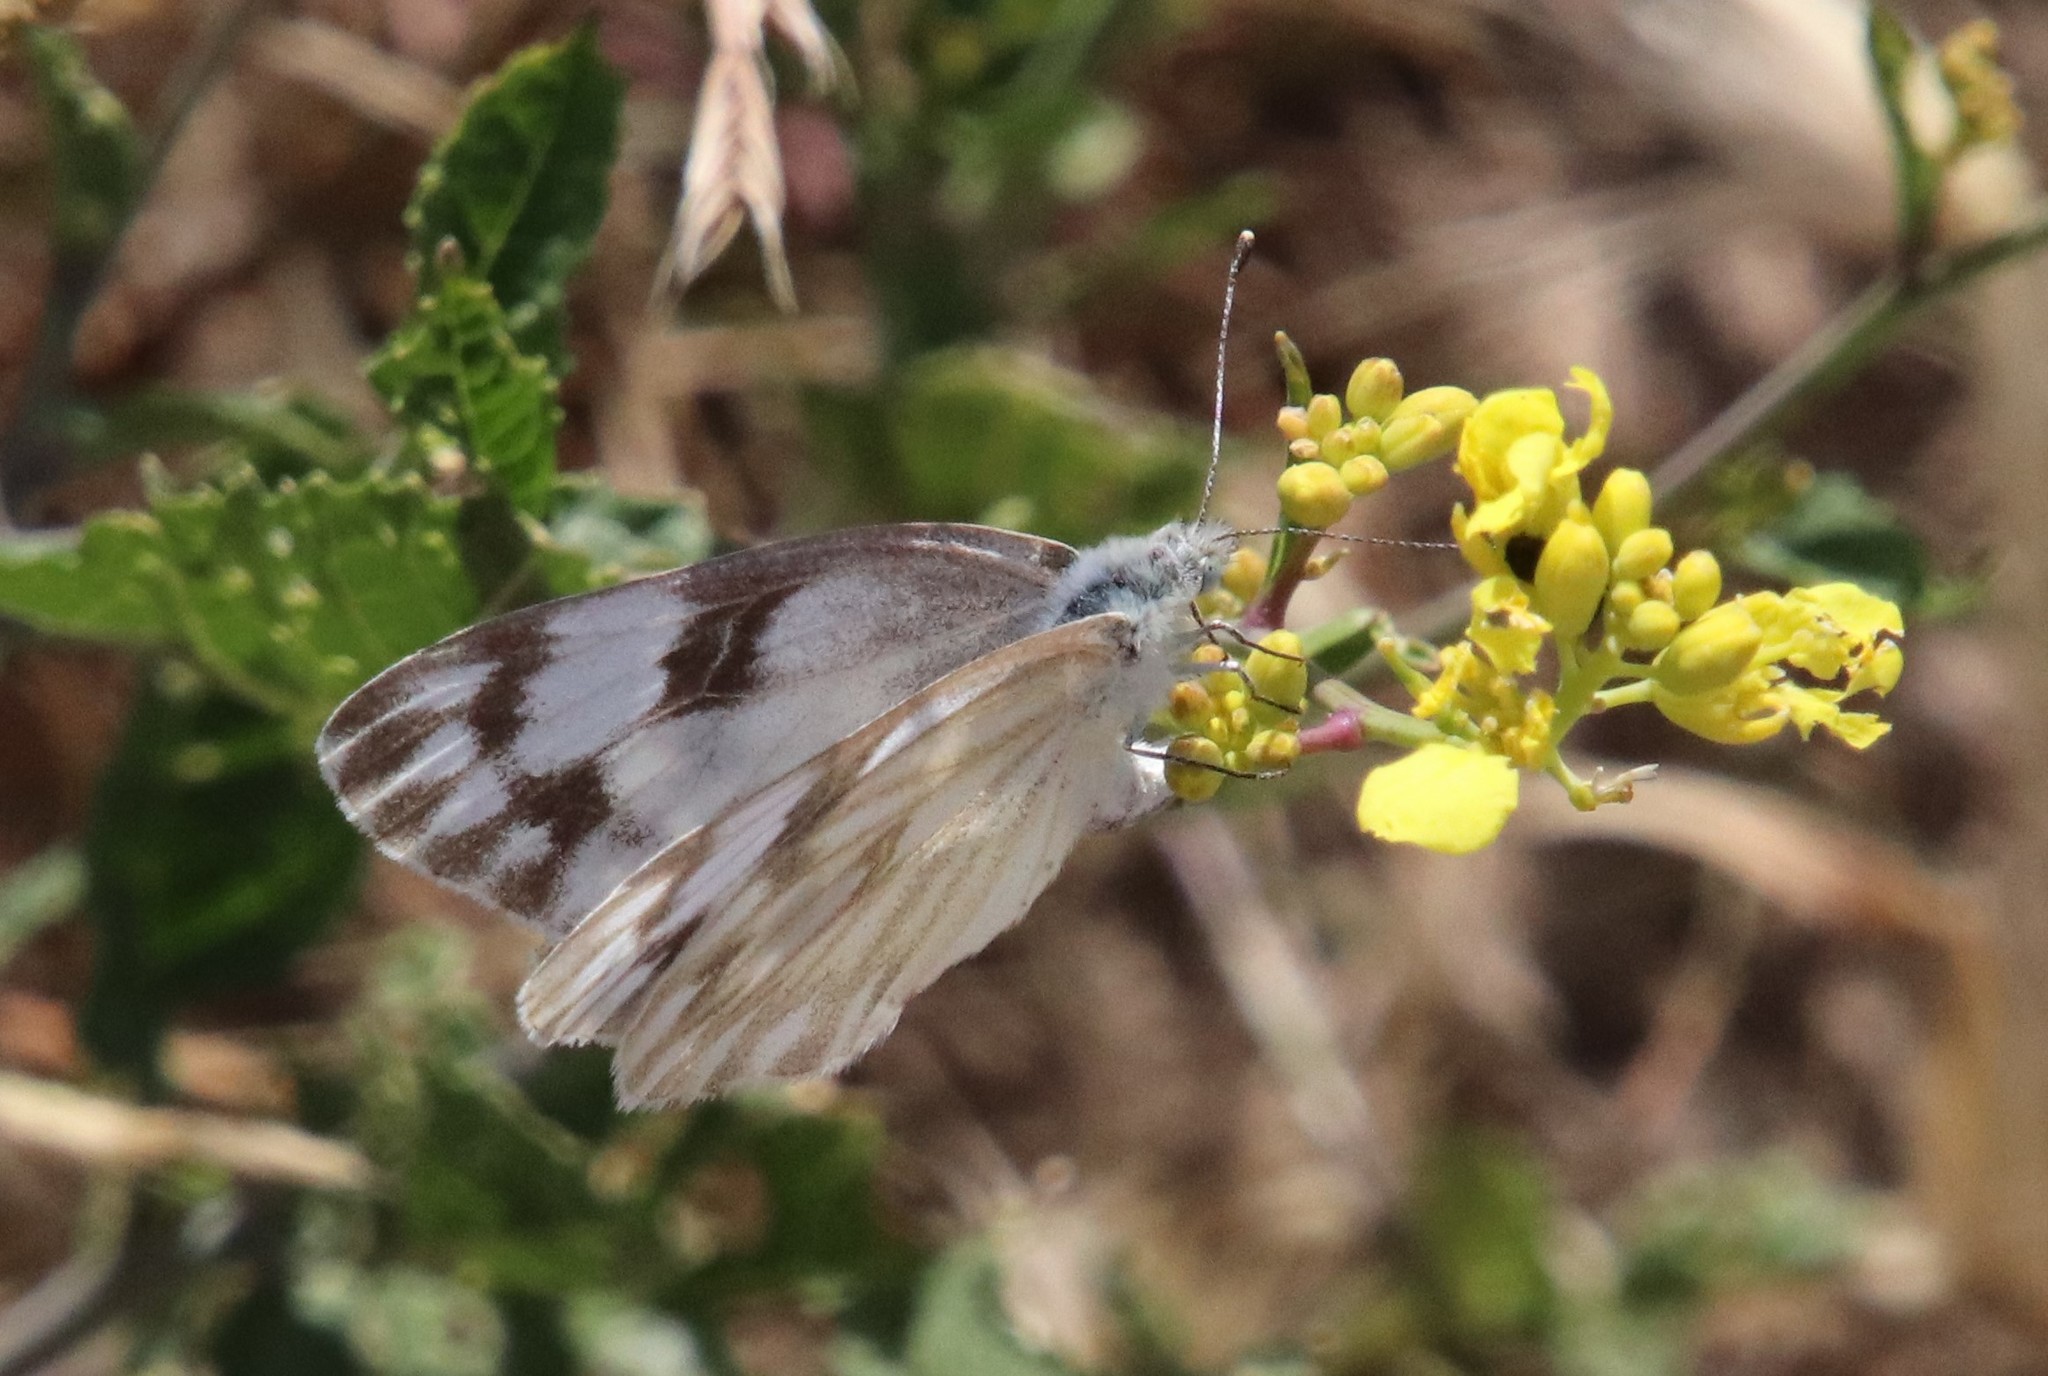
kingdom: Animalia
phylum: Arthropoda
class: Insecta
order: Lepidoptera
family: Pieridae
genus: Pontia
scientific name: Pontia protodice
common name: Checkered white
